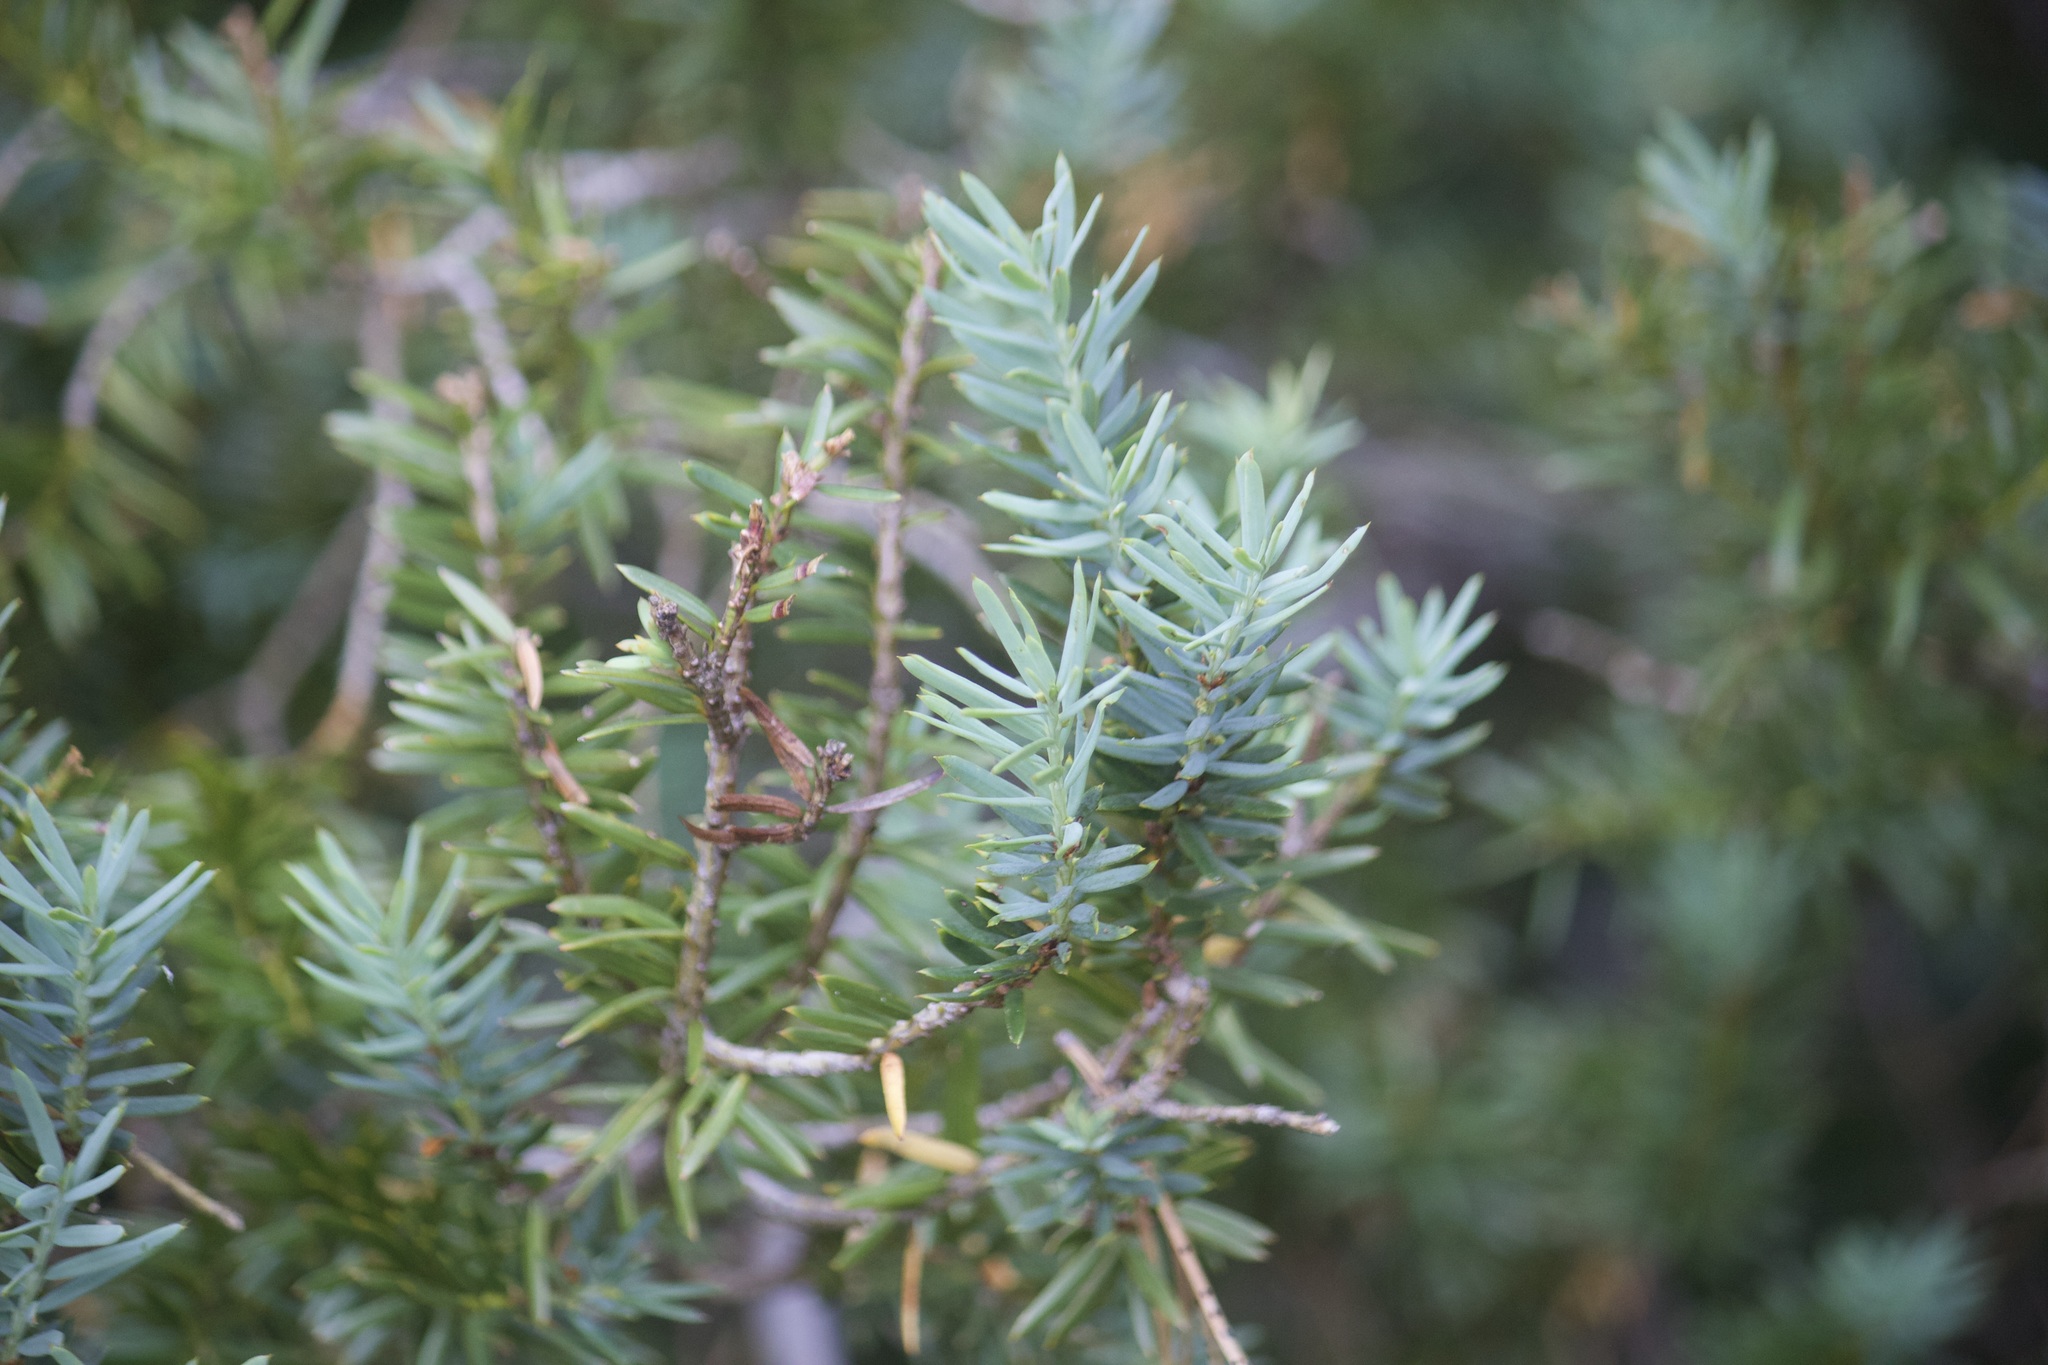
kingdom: Plantae
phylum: Tracheophyta
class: Pinopsida
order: Pinales
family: Taxaceae
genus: Taxus
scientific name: Taxus brevifolia
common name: Pacific yew
